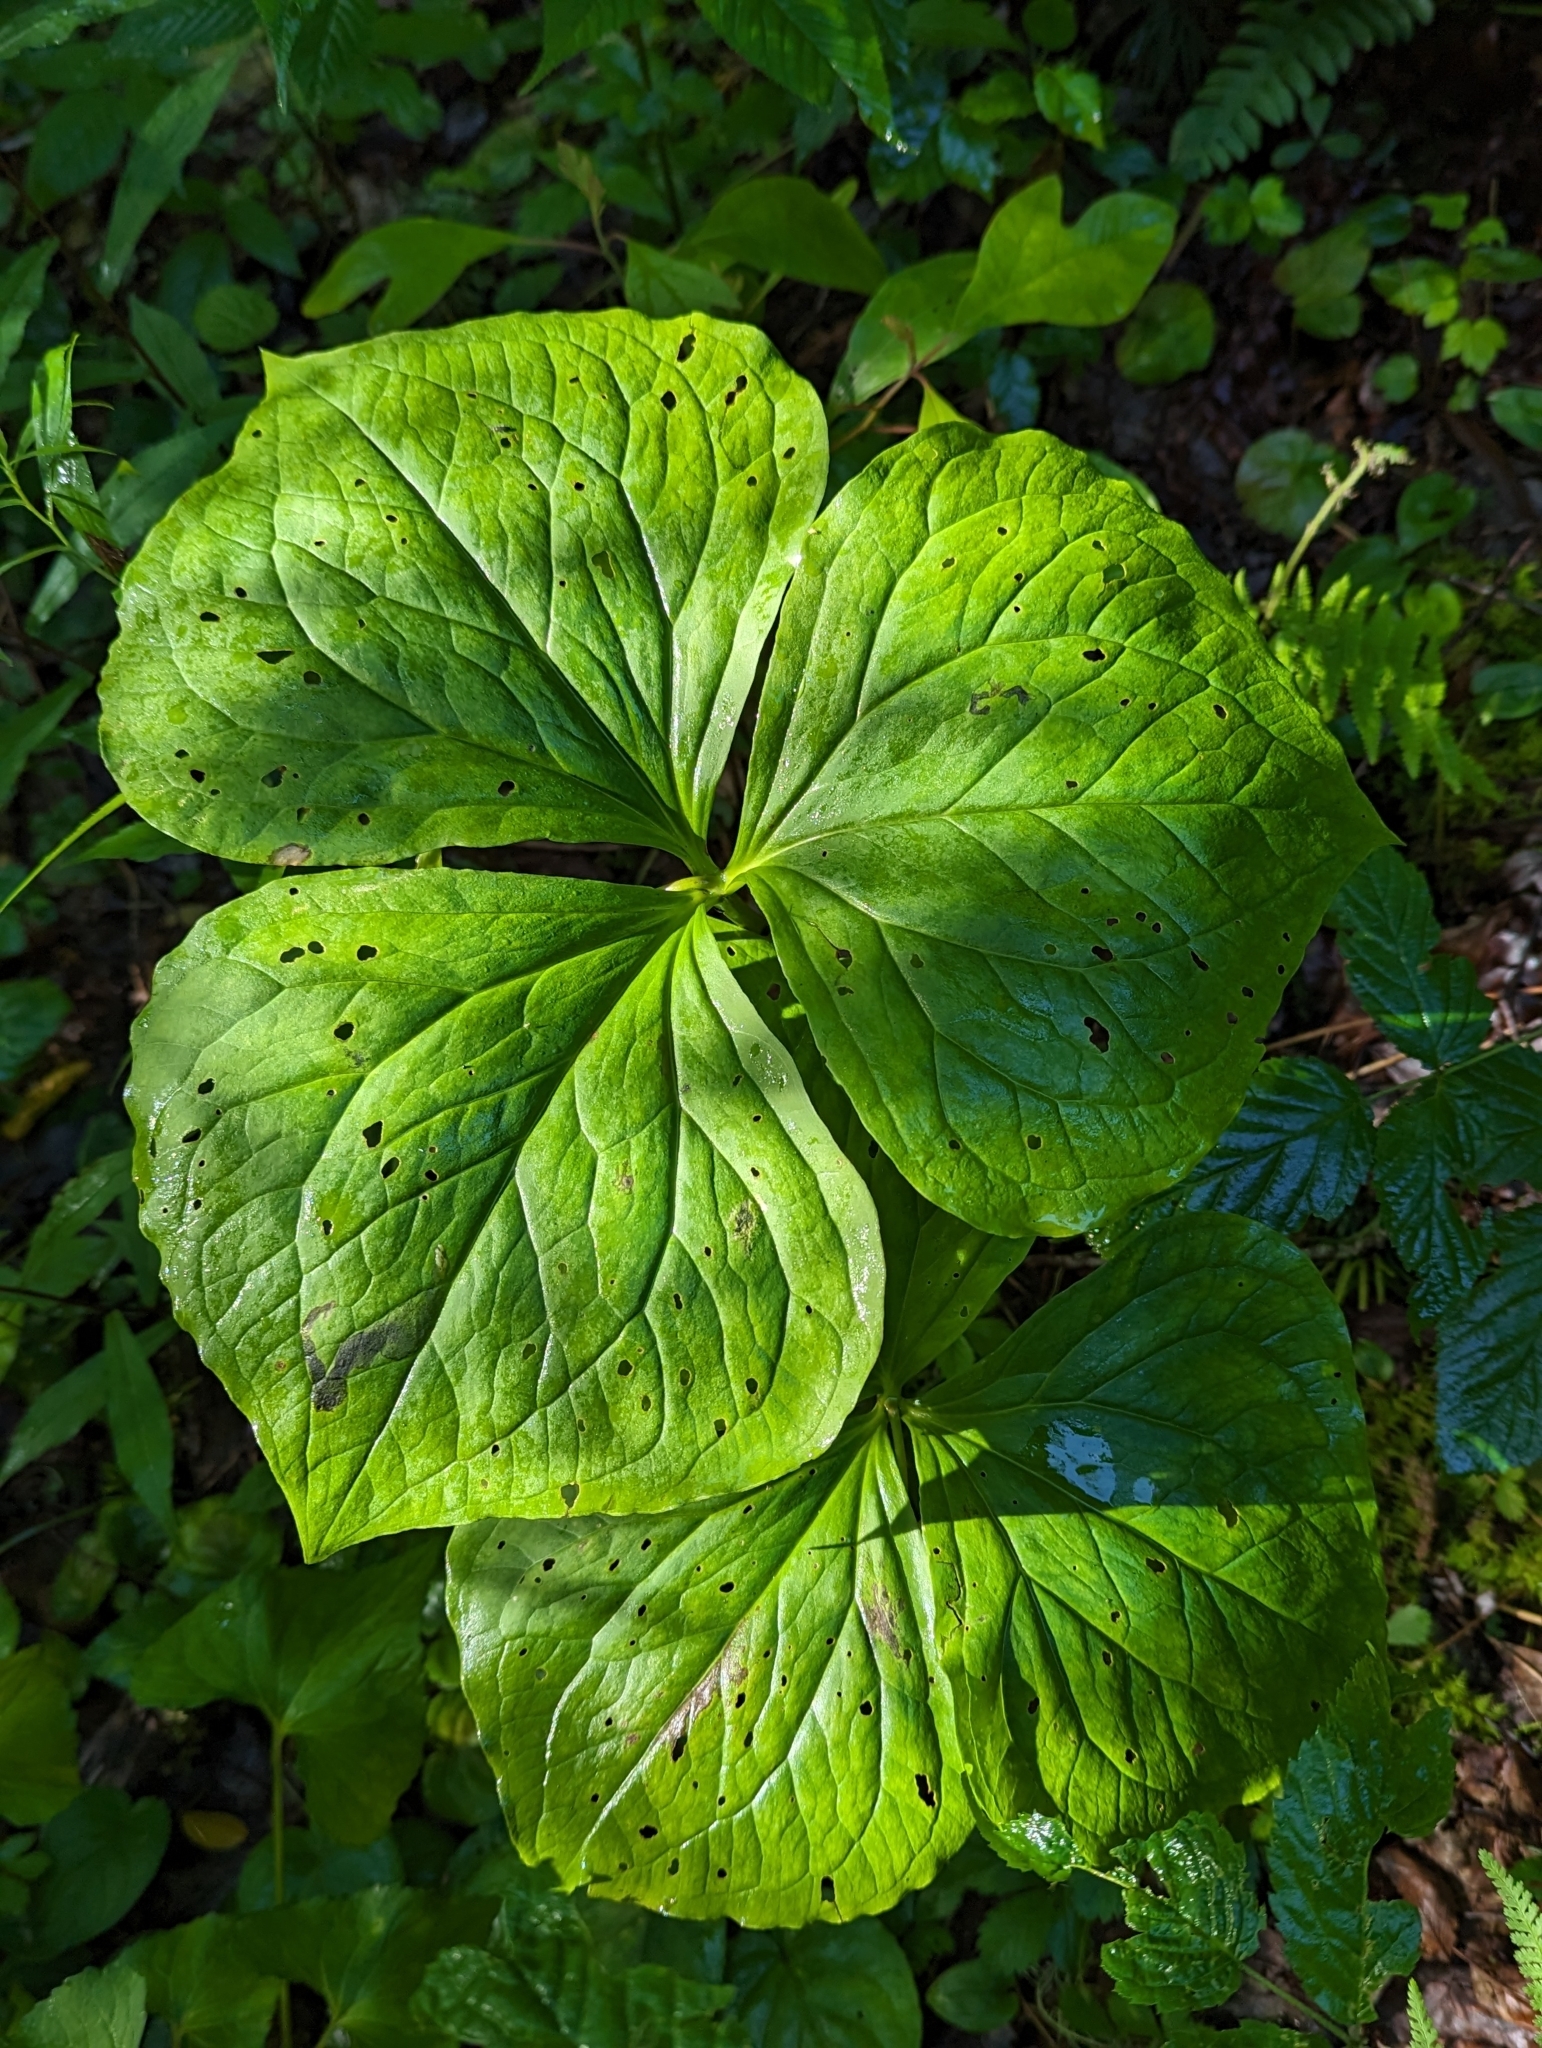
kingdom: Plantae
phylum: Tracheophyta
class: Liliopsida
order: Liliales
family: Melanthiaceae
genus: Trillium
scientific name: Trillium vaseyi
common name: Sweet trillium
